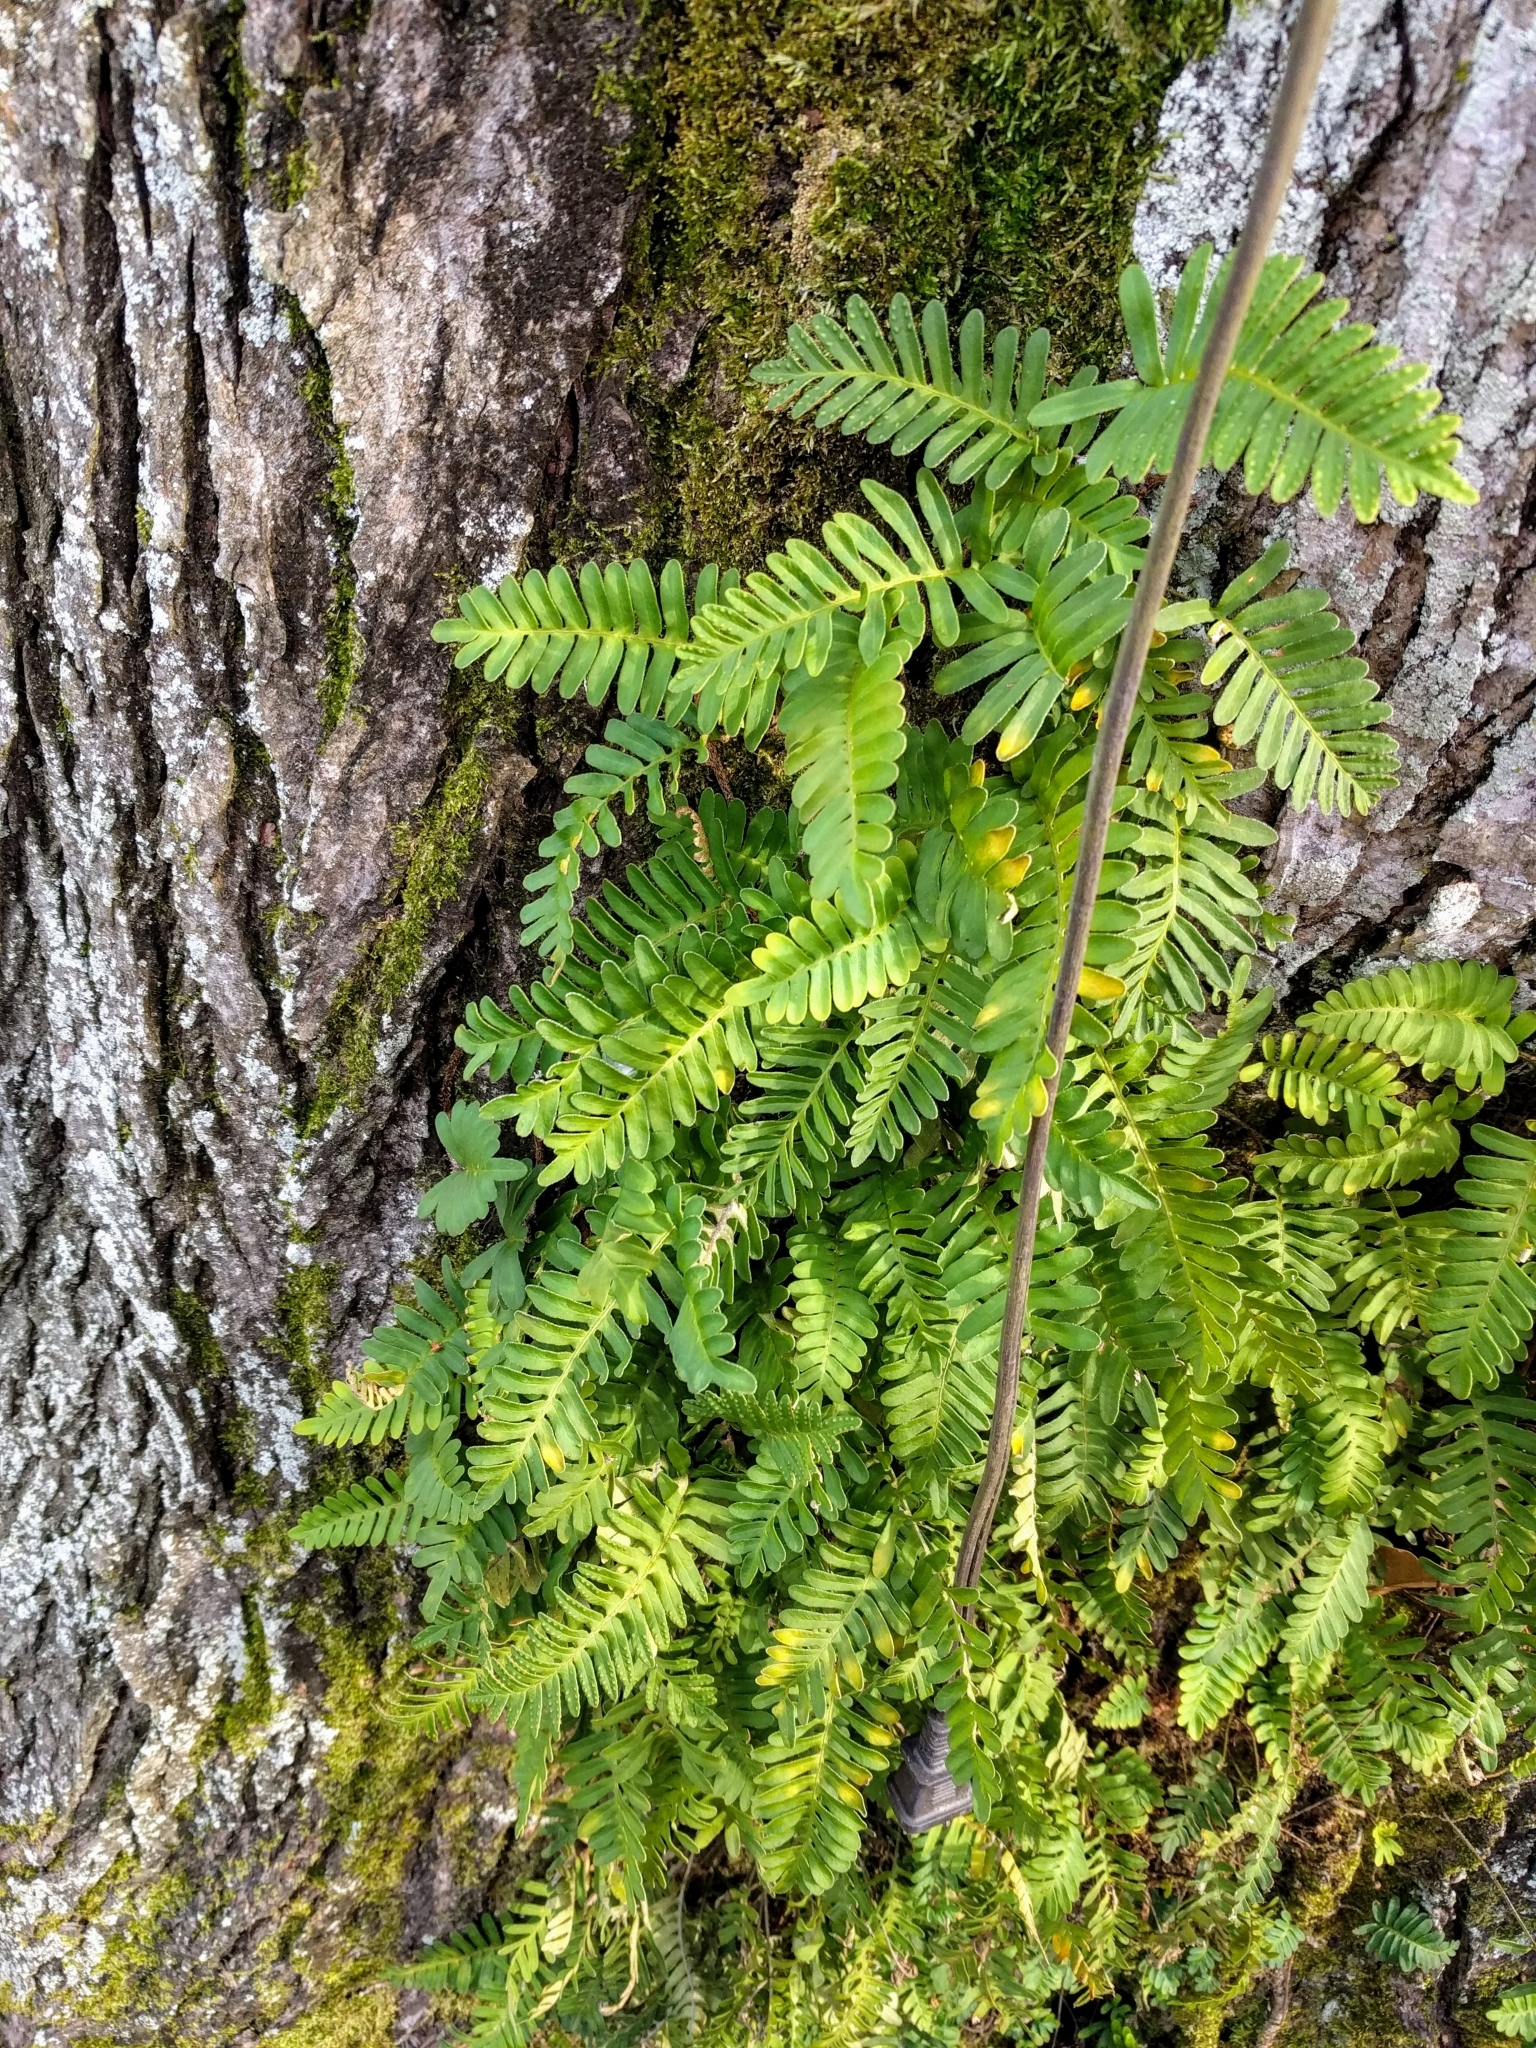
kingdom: Plantae
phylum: Tracheophyta
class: Polypodiopsida
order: Polypodiales
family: Polypodiaceae
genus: Pleopeltis
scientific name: Pleopeltis michauxiana
